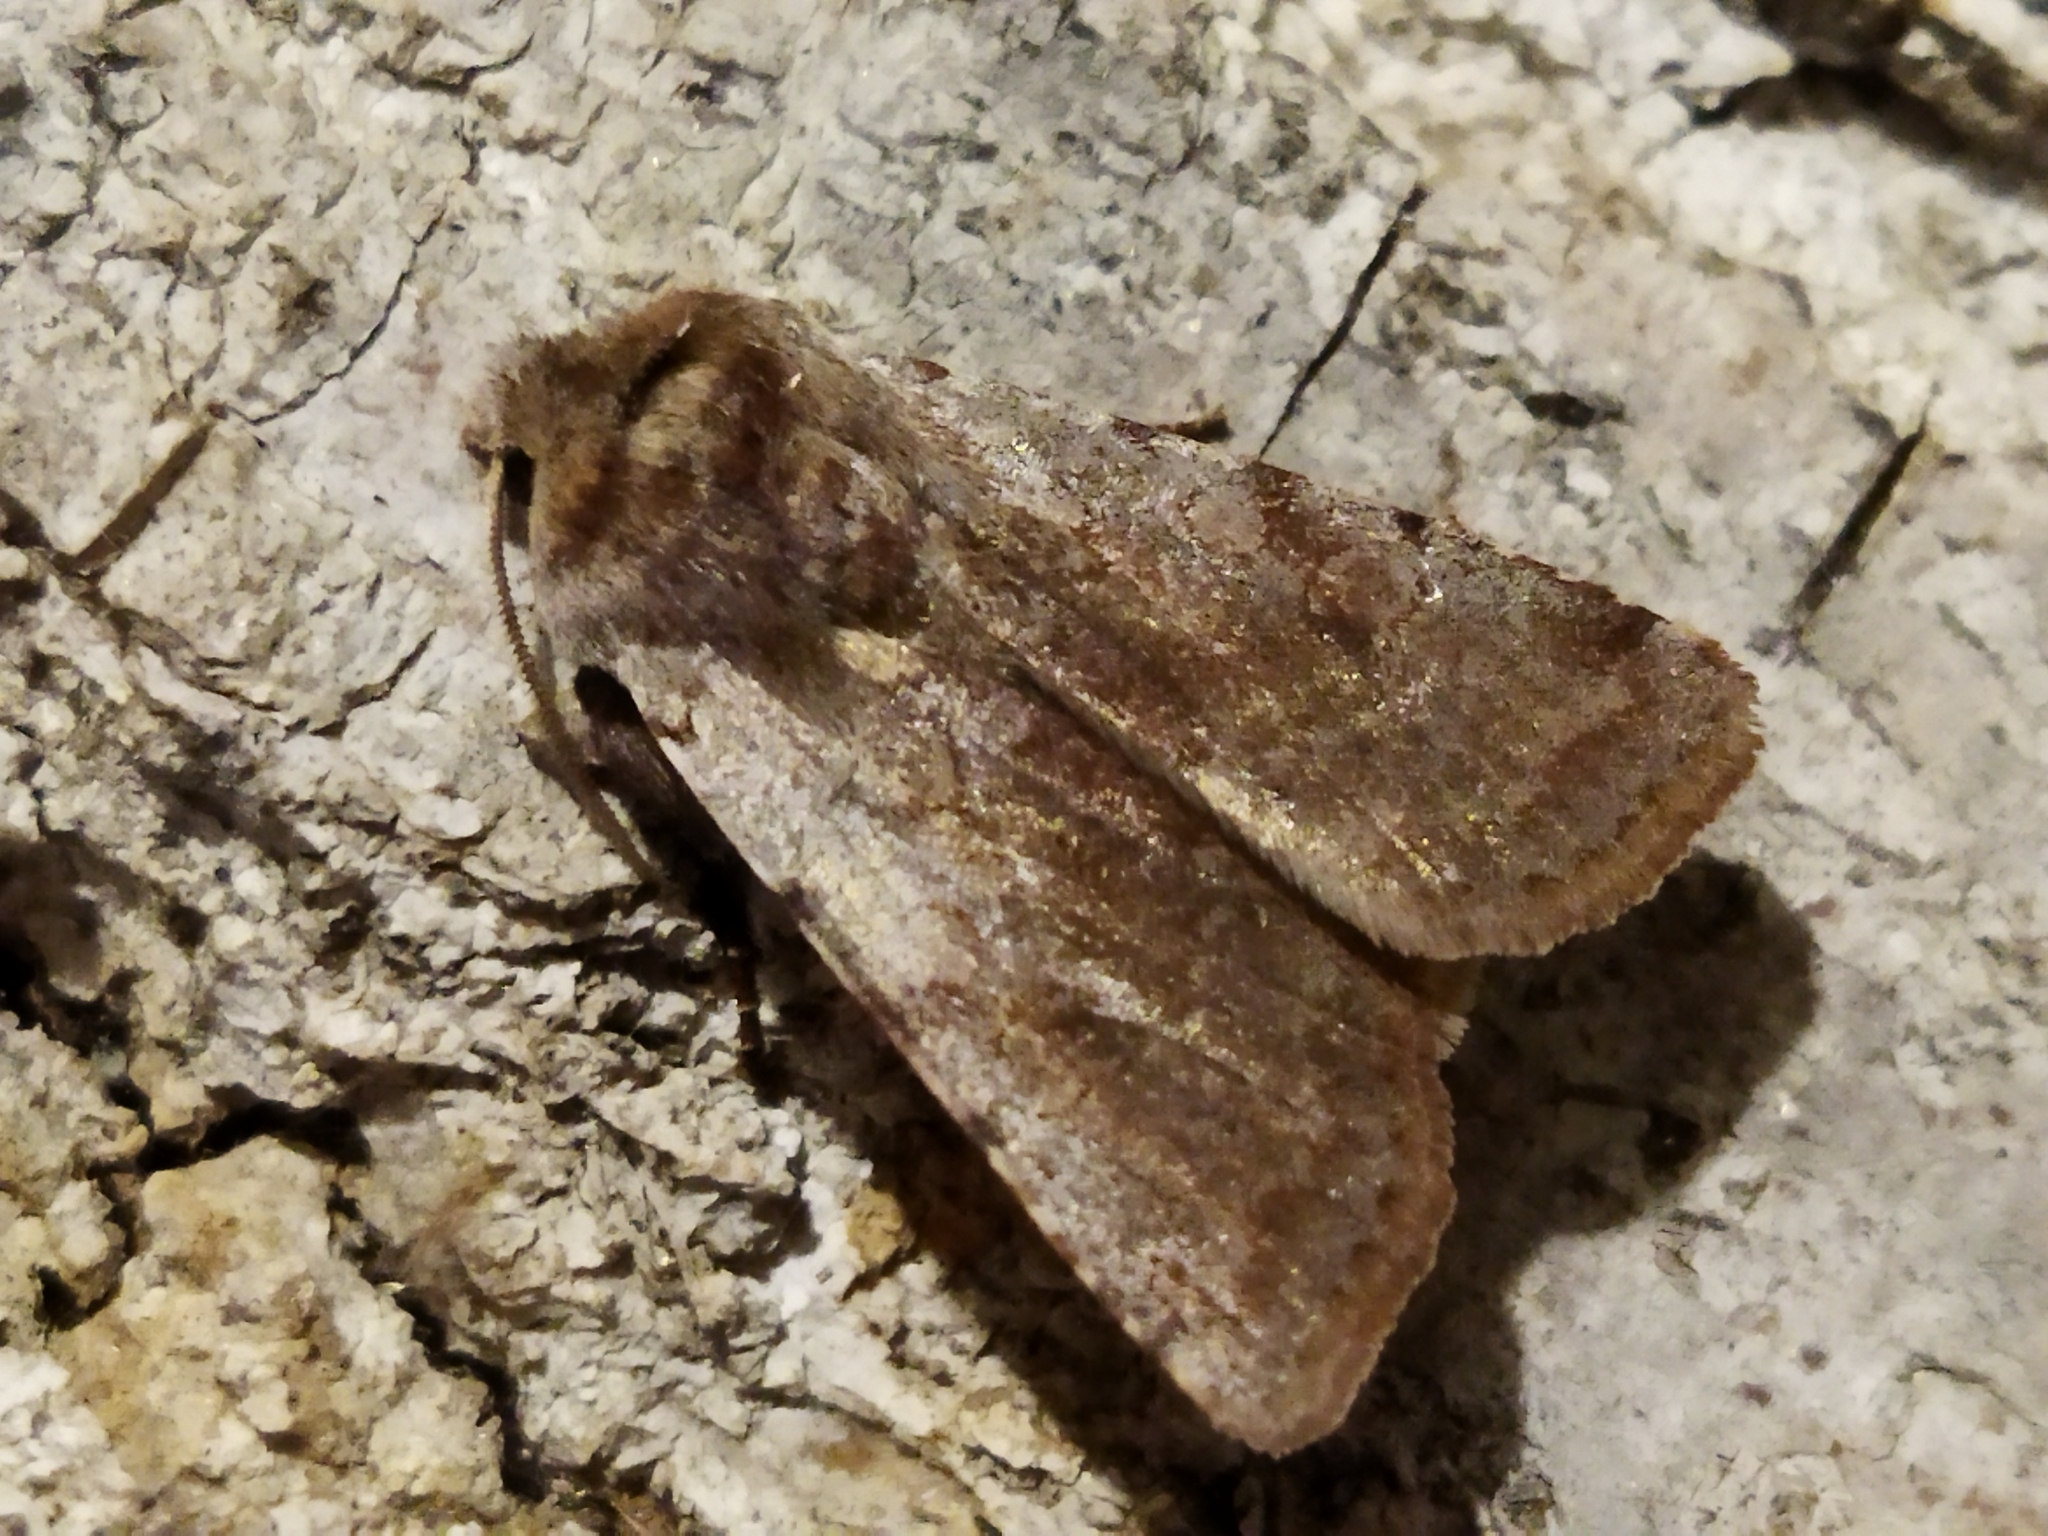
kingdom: Animalia
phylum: Arthropoda
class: Insecta
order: Lepidoptera
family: Noctuidae
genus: Cerastis
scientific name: Cerastis rubricosa
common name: Red chestnut
